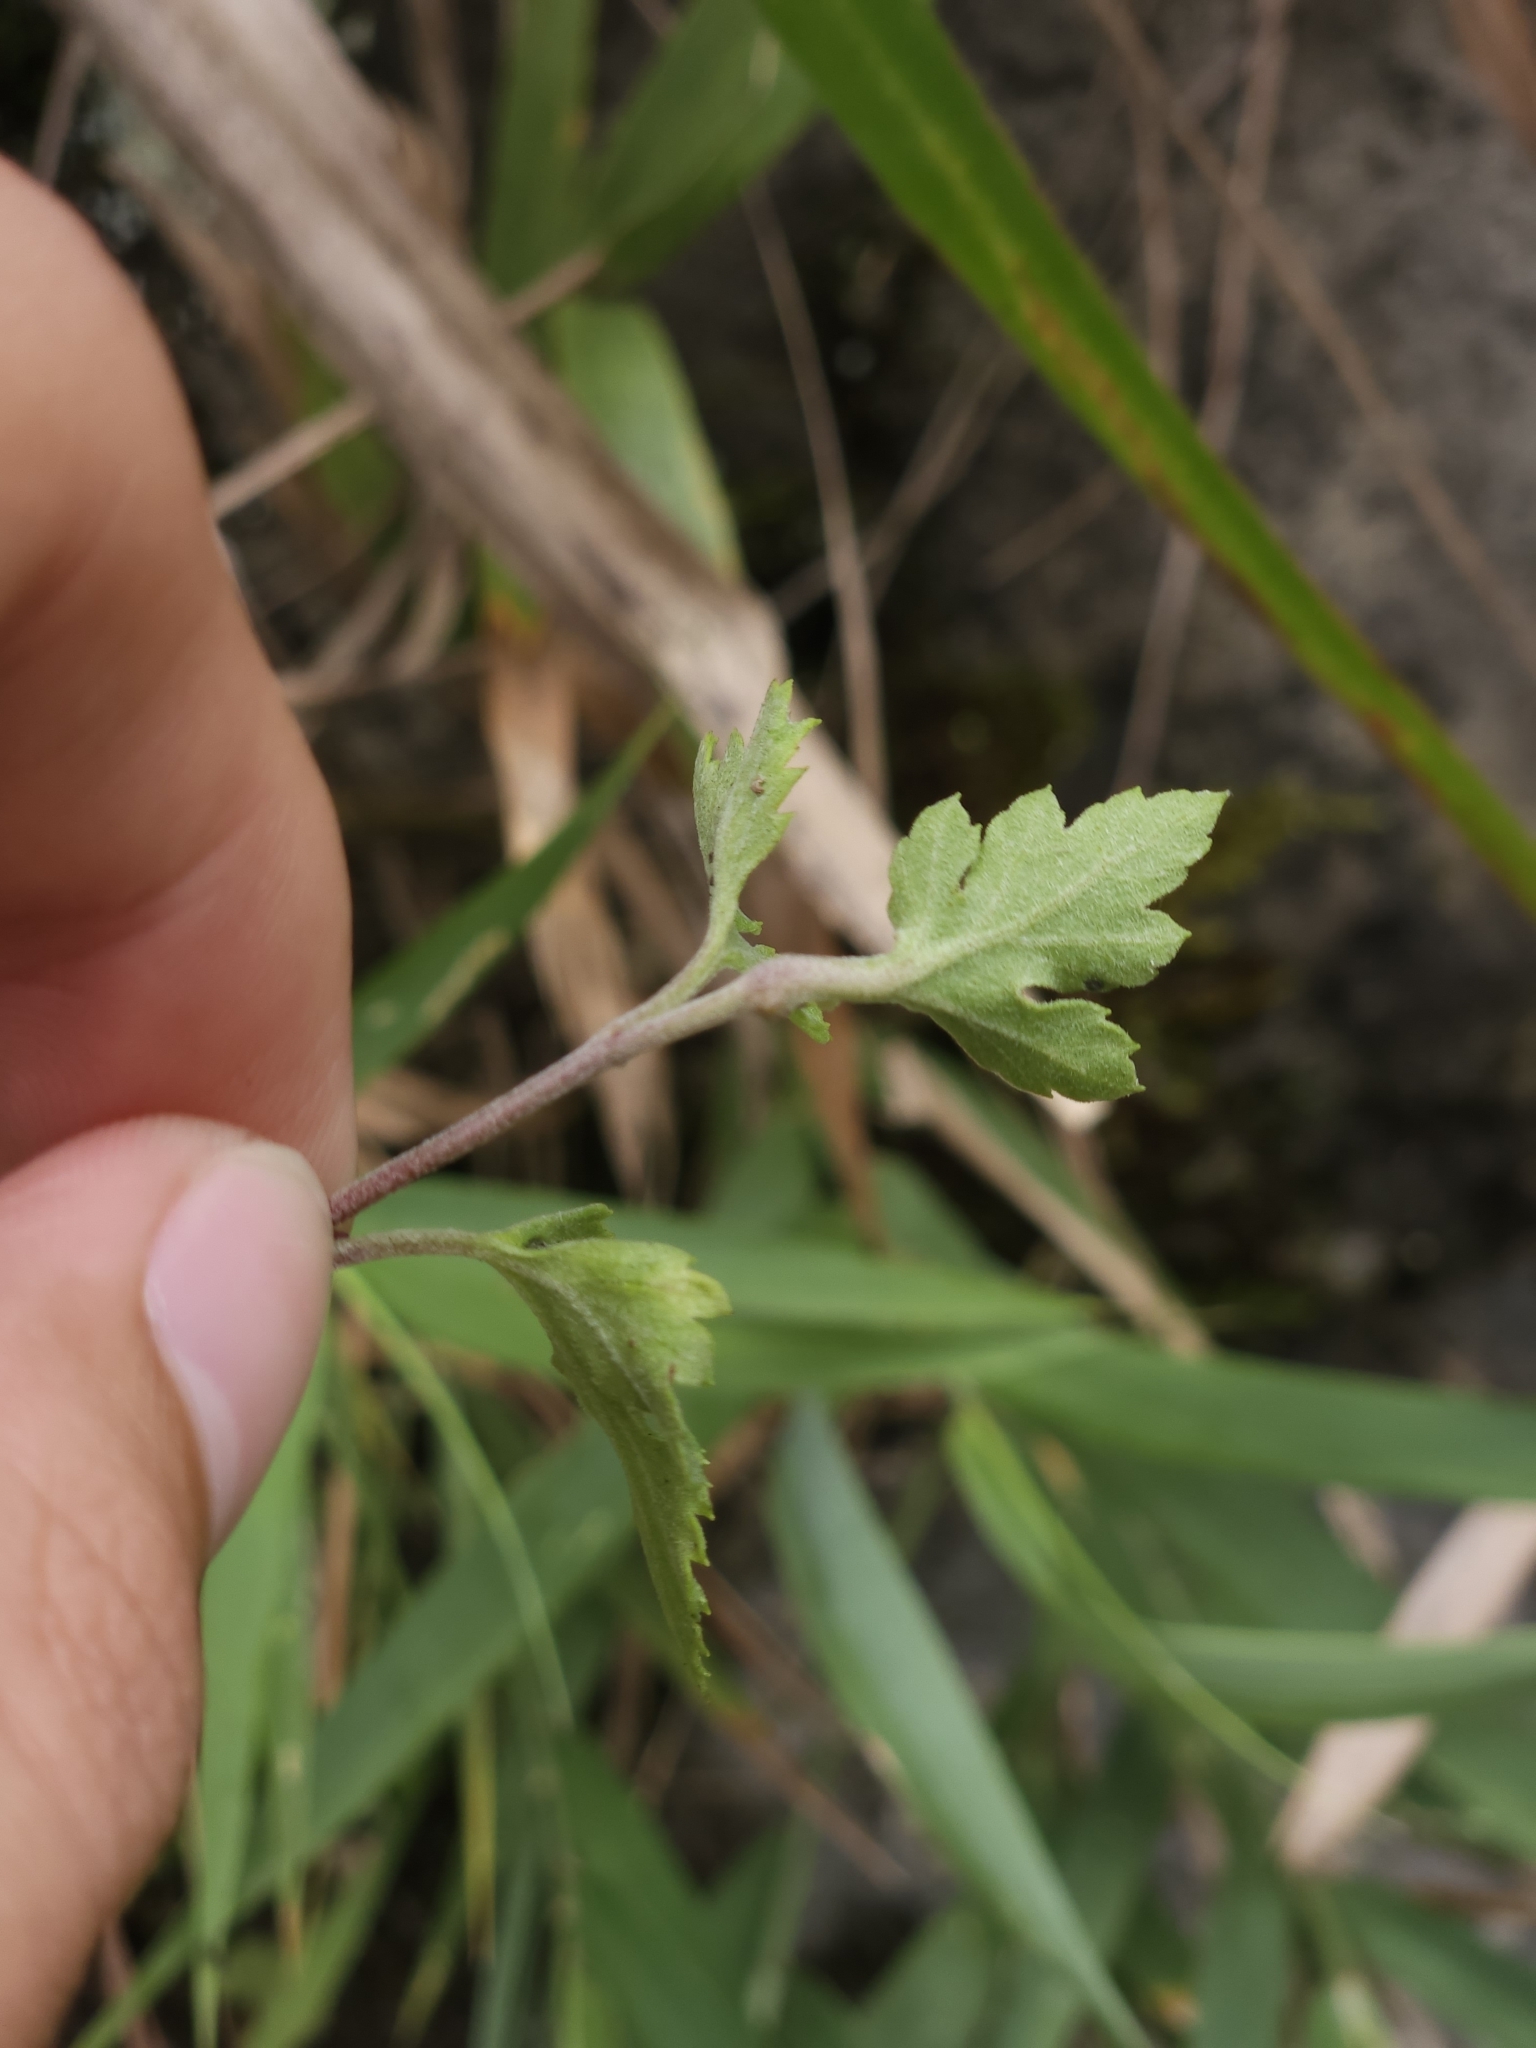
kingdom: Plantae
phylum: Tracheophyta
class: Magnoliopsida
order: Asterales
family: Asteraceae
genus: Chrysanthemum
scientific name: Chrysanthemum arisanense
